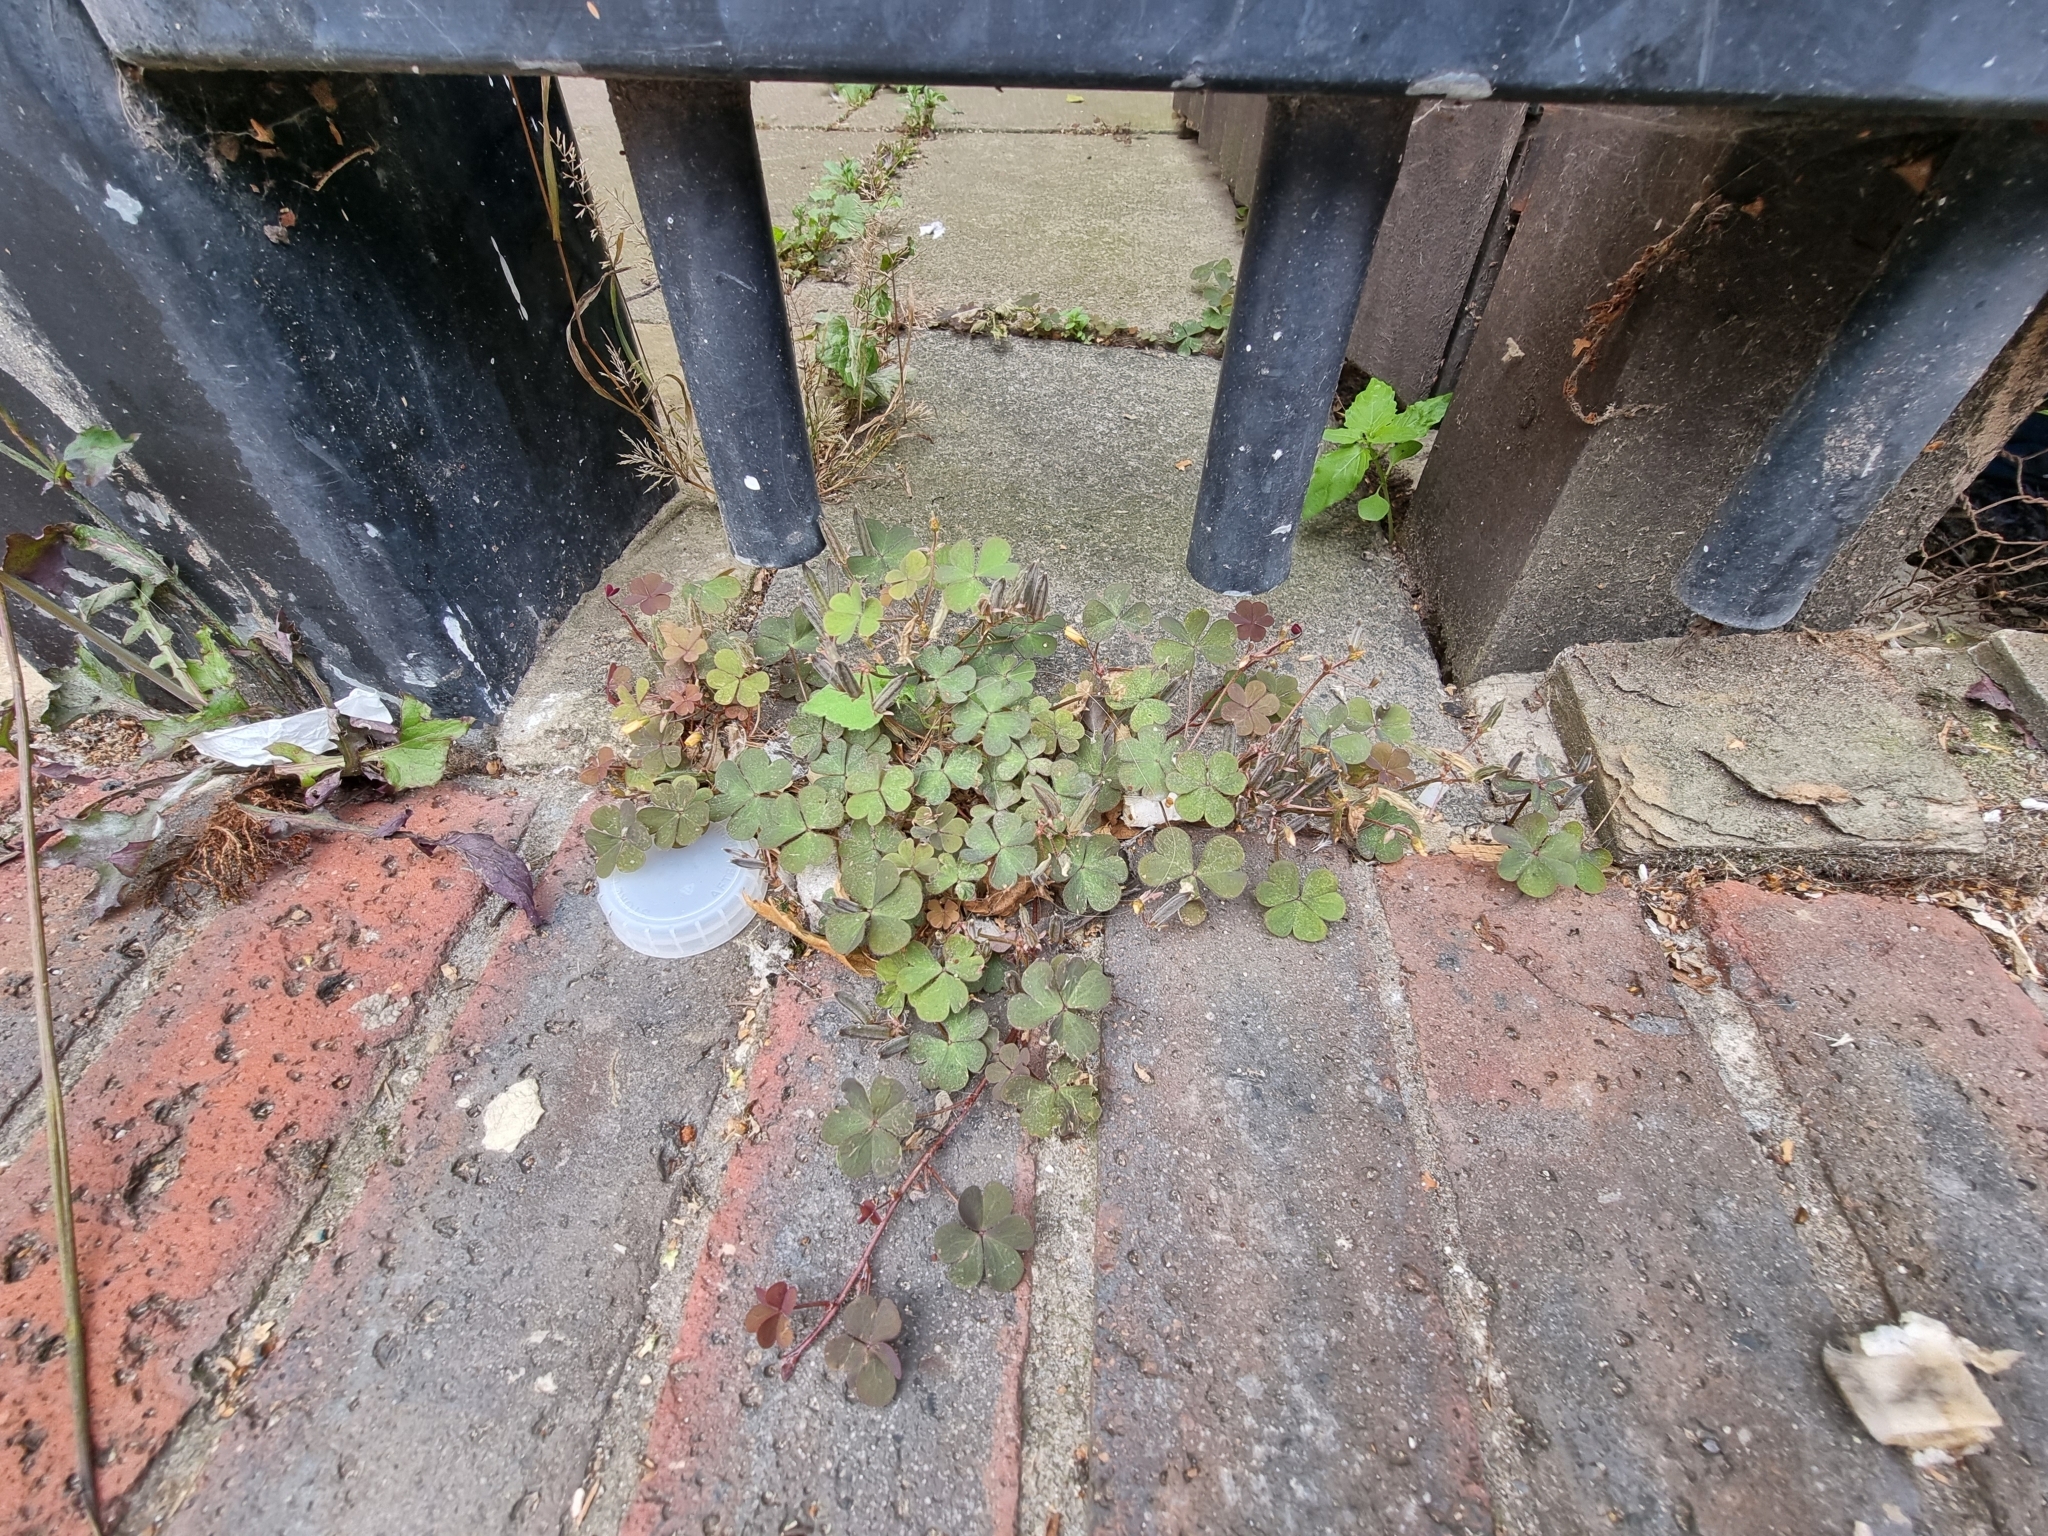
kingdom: Plantae
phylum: Tracheophyta
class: Magnoliopsida
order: Oxalidales
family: Oxalidaceae
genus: Oxalis
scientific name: Oxalis corniculata
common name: Procumbent yellow-sorrel
